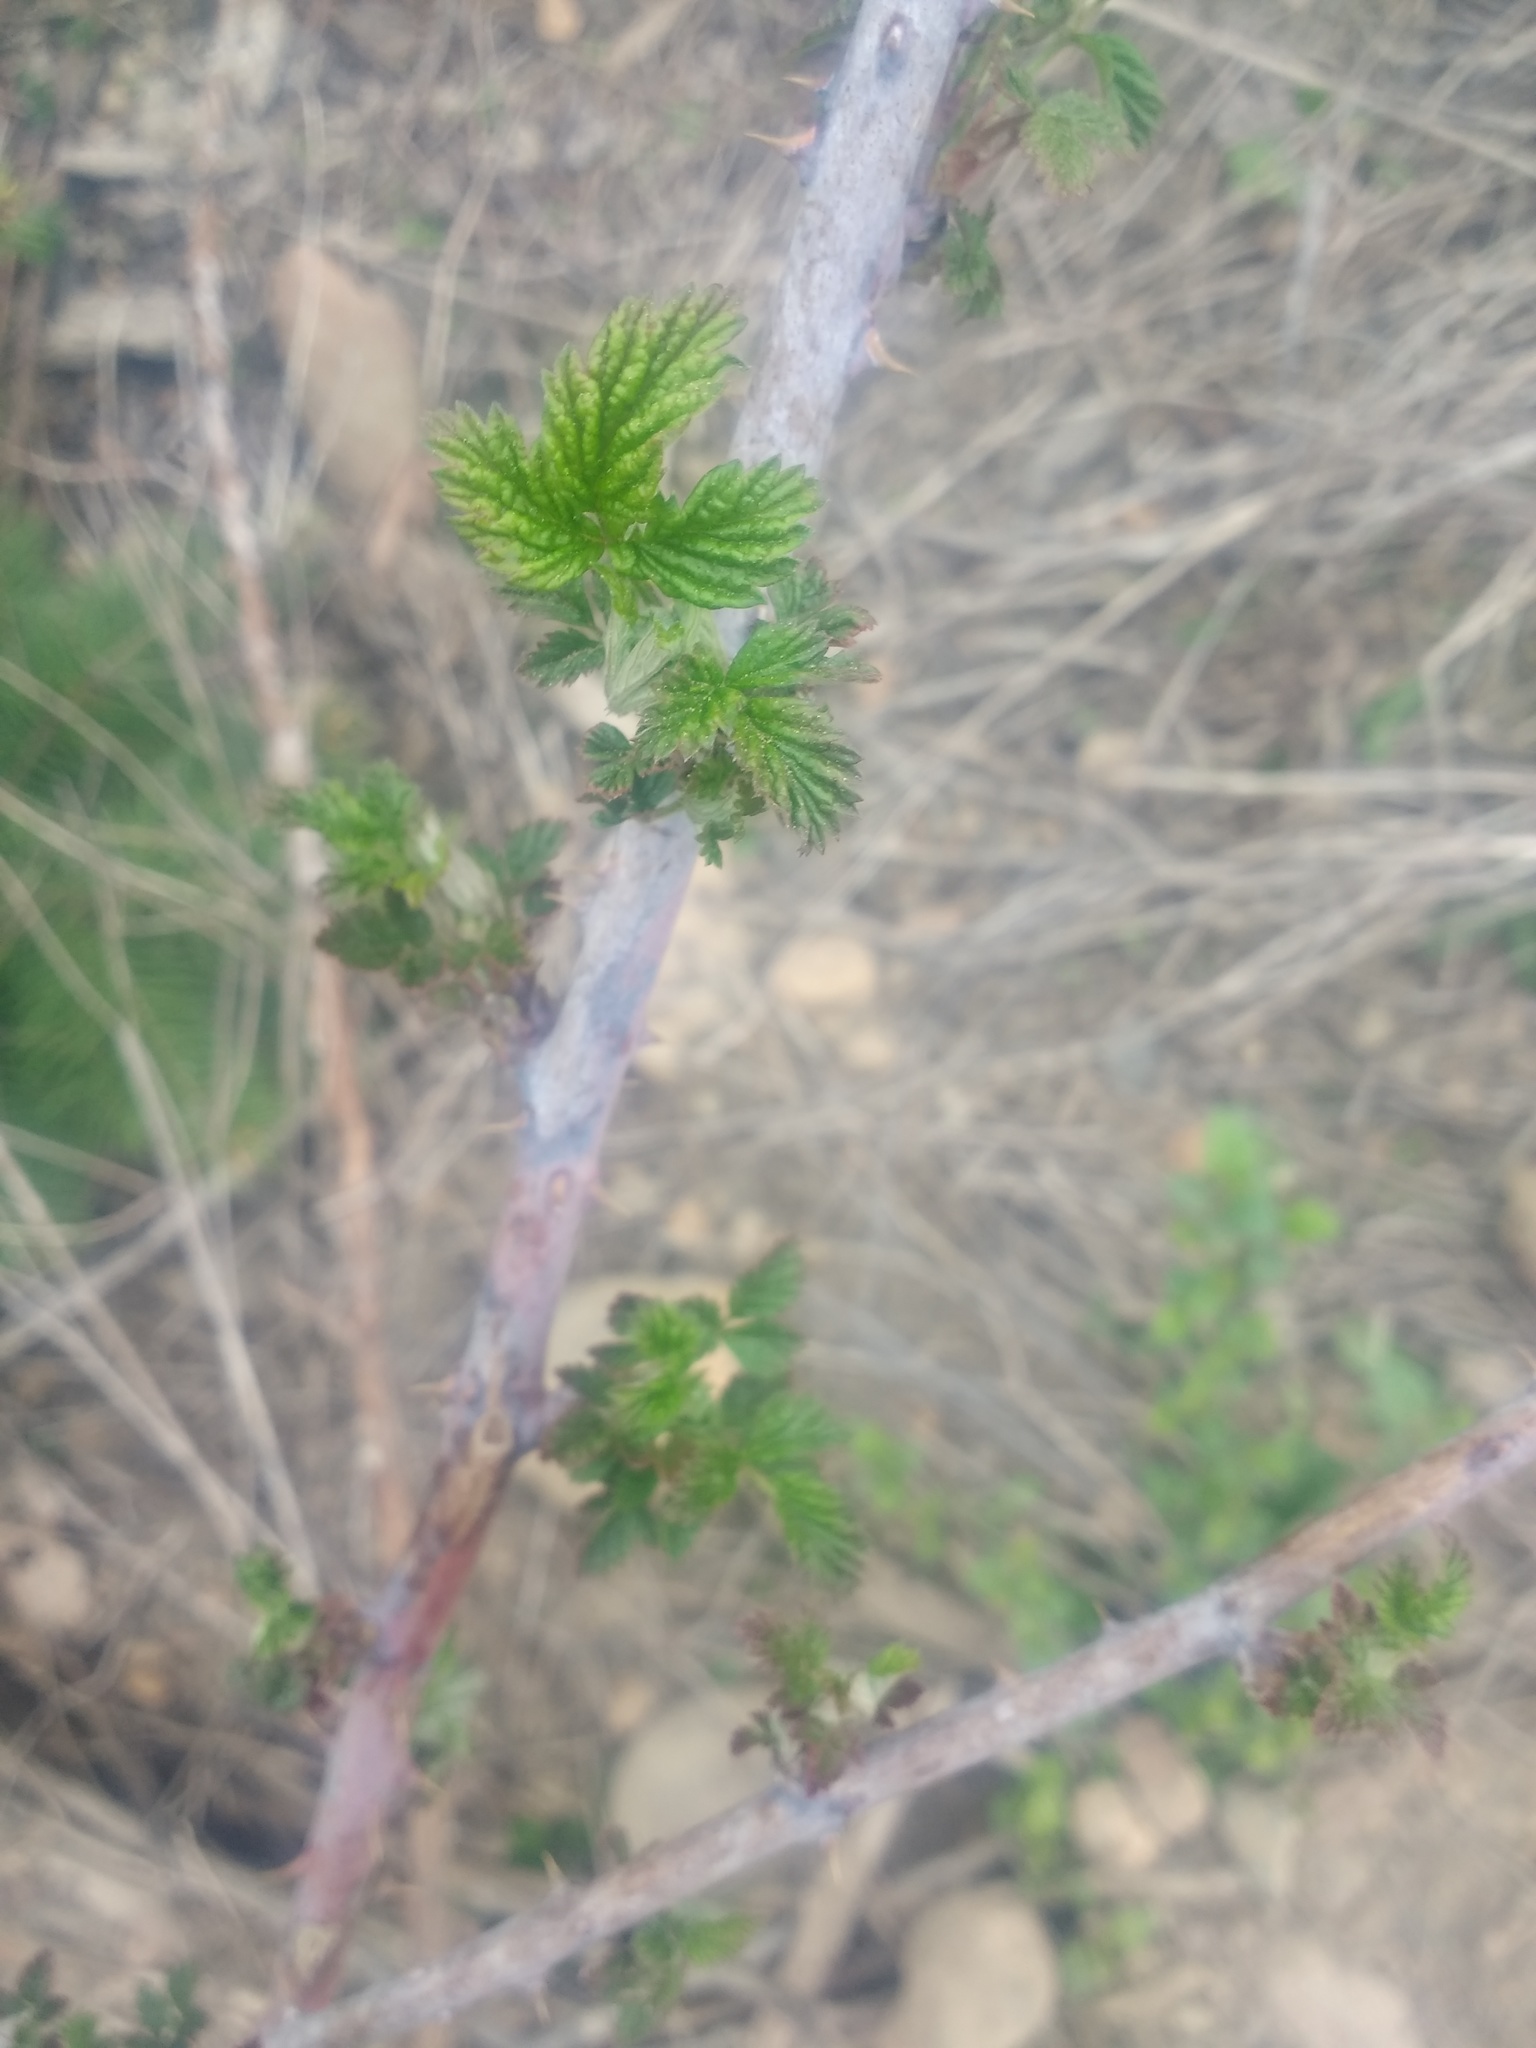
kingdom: Plantae
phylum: Tracheophyta
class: Magnoliopsida
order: Rosales
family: Rosaceae
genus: Rubus
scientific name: Rubus leucodermis
